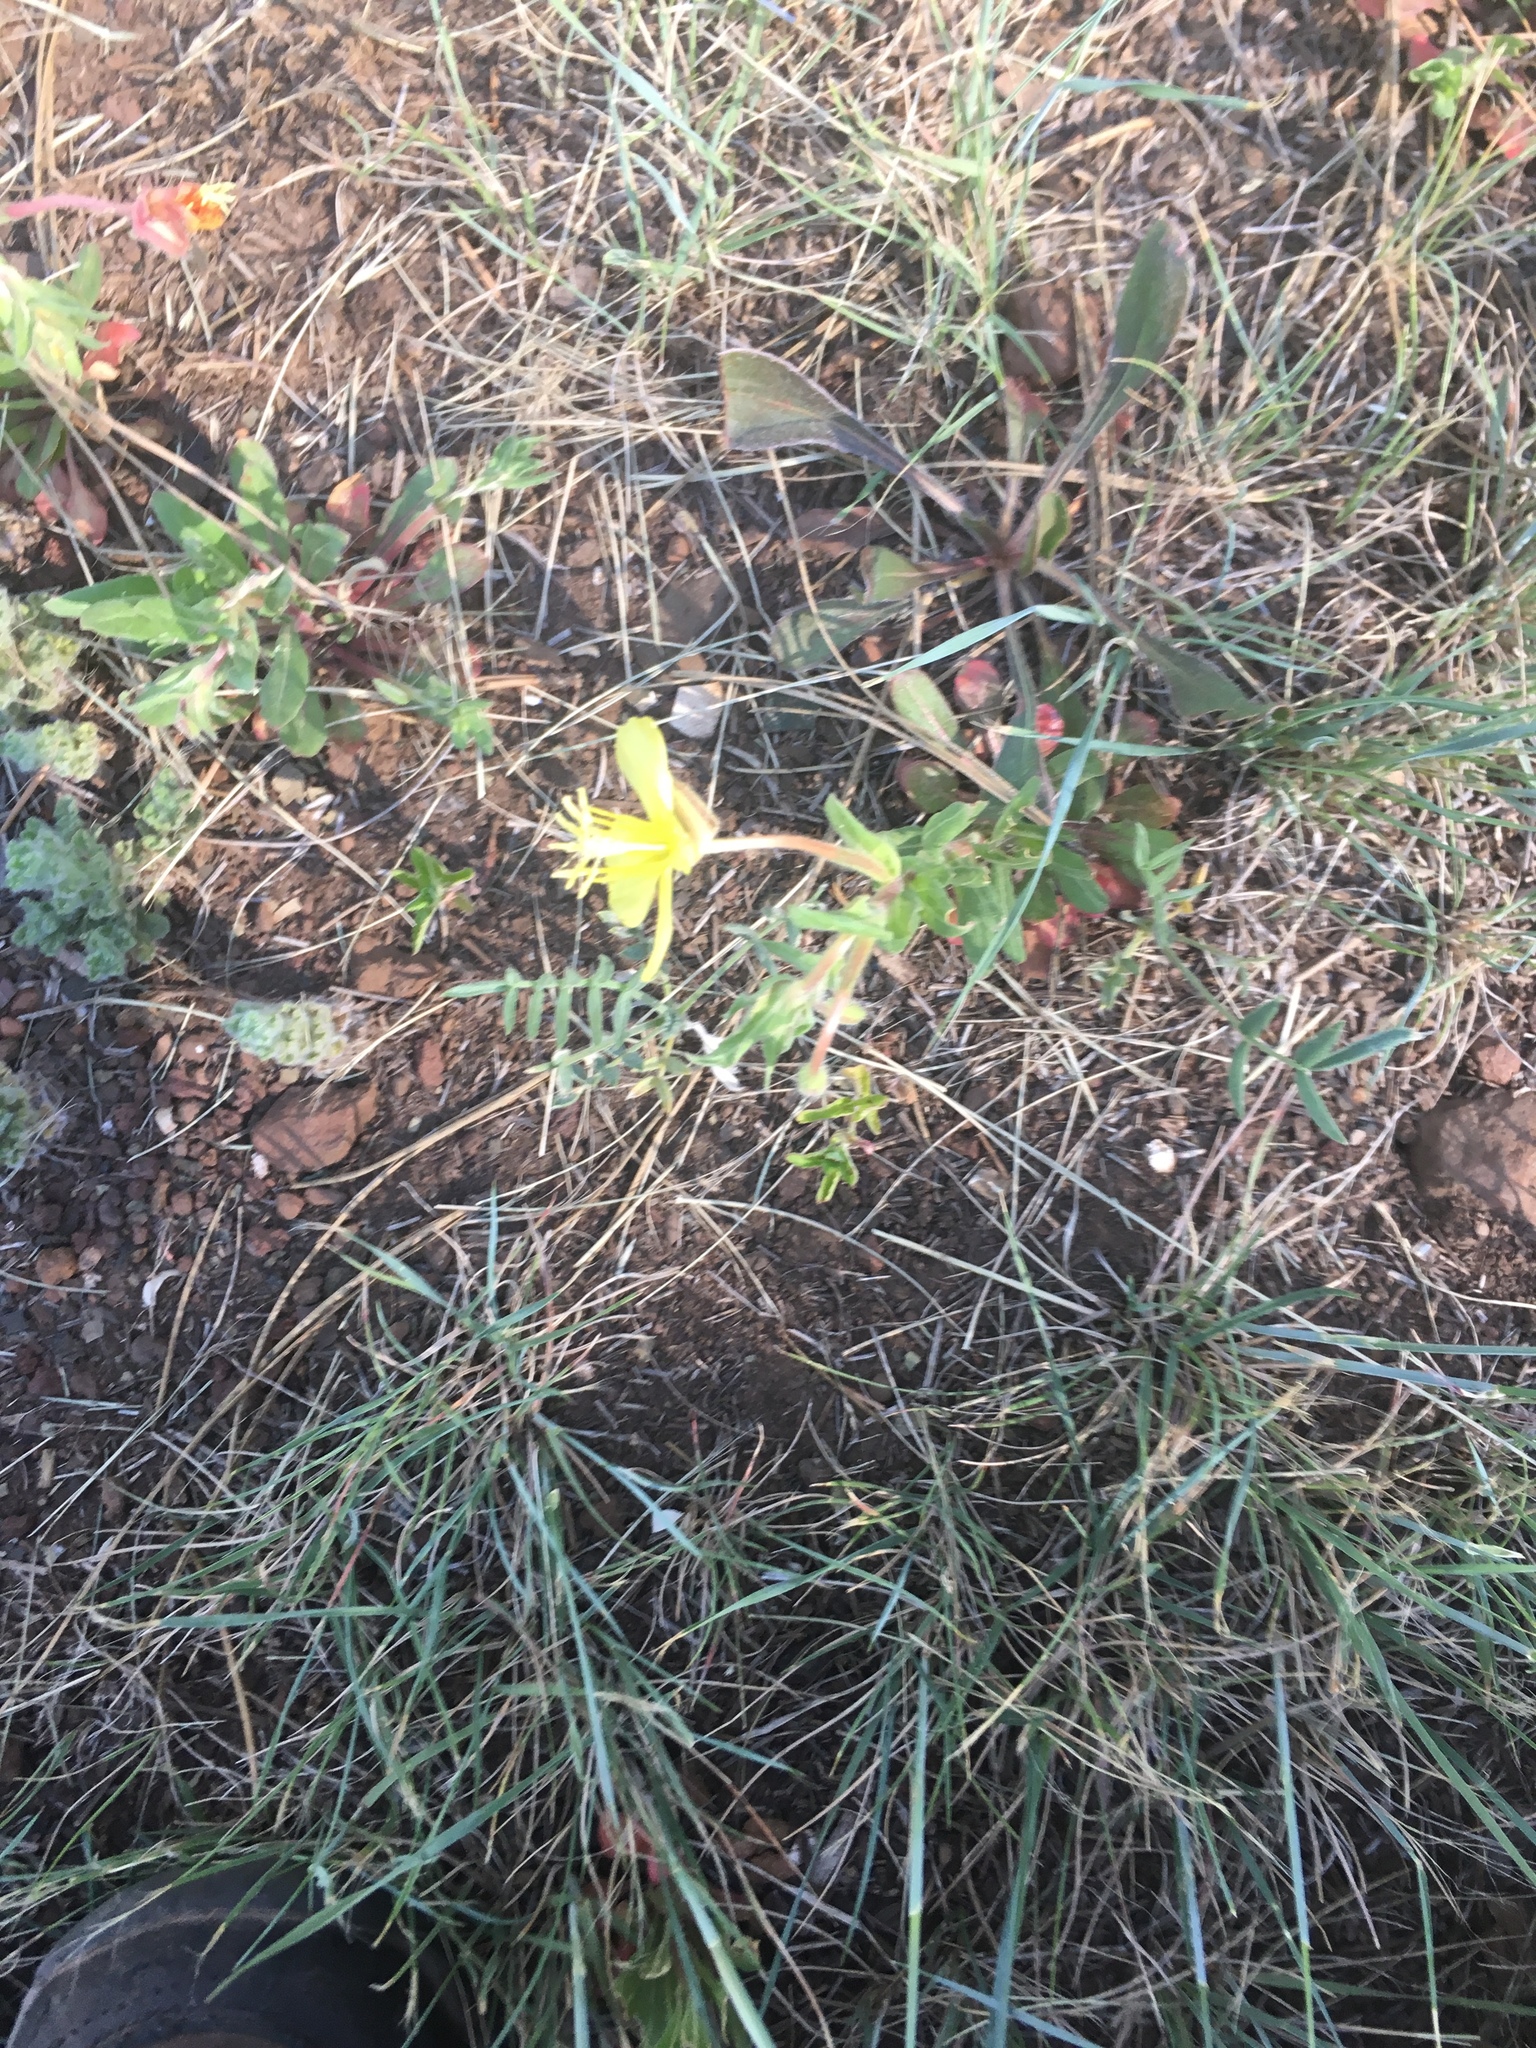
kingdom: Plantae
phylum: Tracheophyta
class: Magnoliopsida
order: Myrtales
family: Onagraceae
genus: Oenothera
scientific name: Oenothera elata
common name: Hooker's evening-primrose
